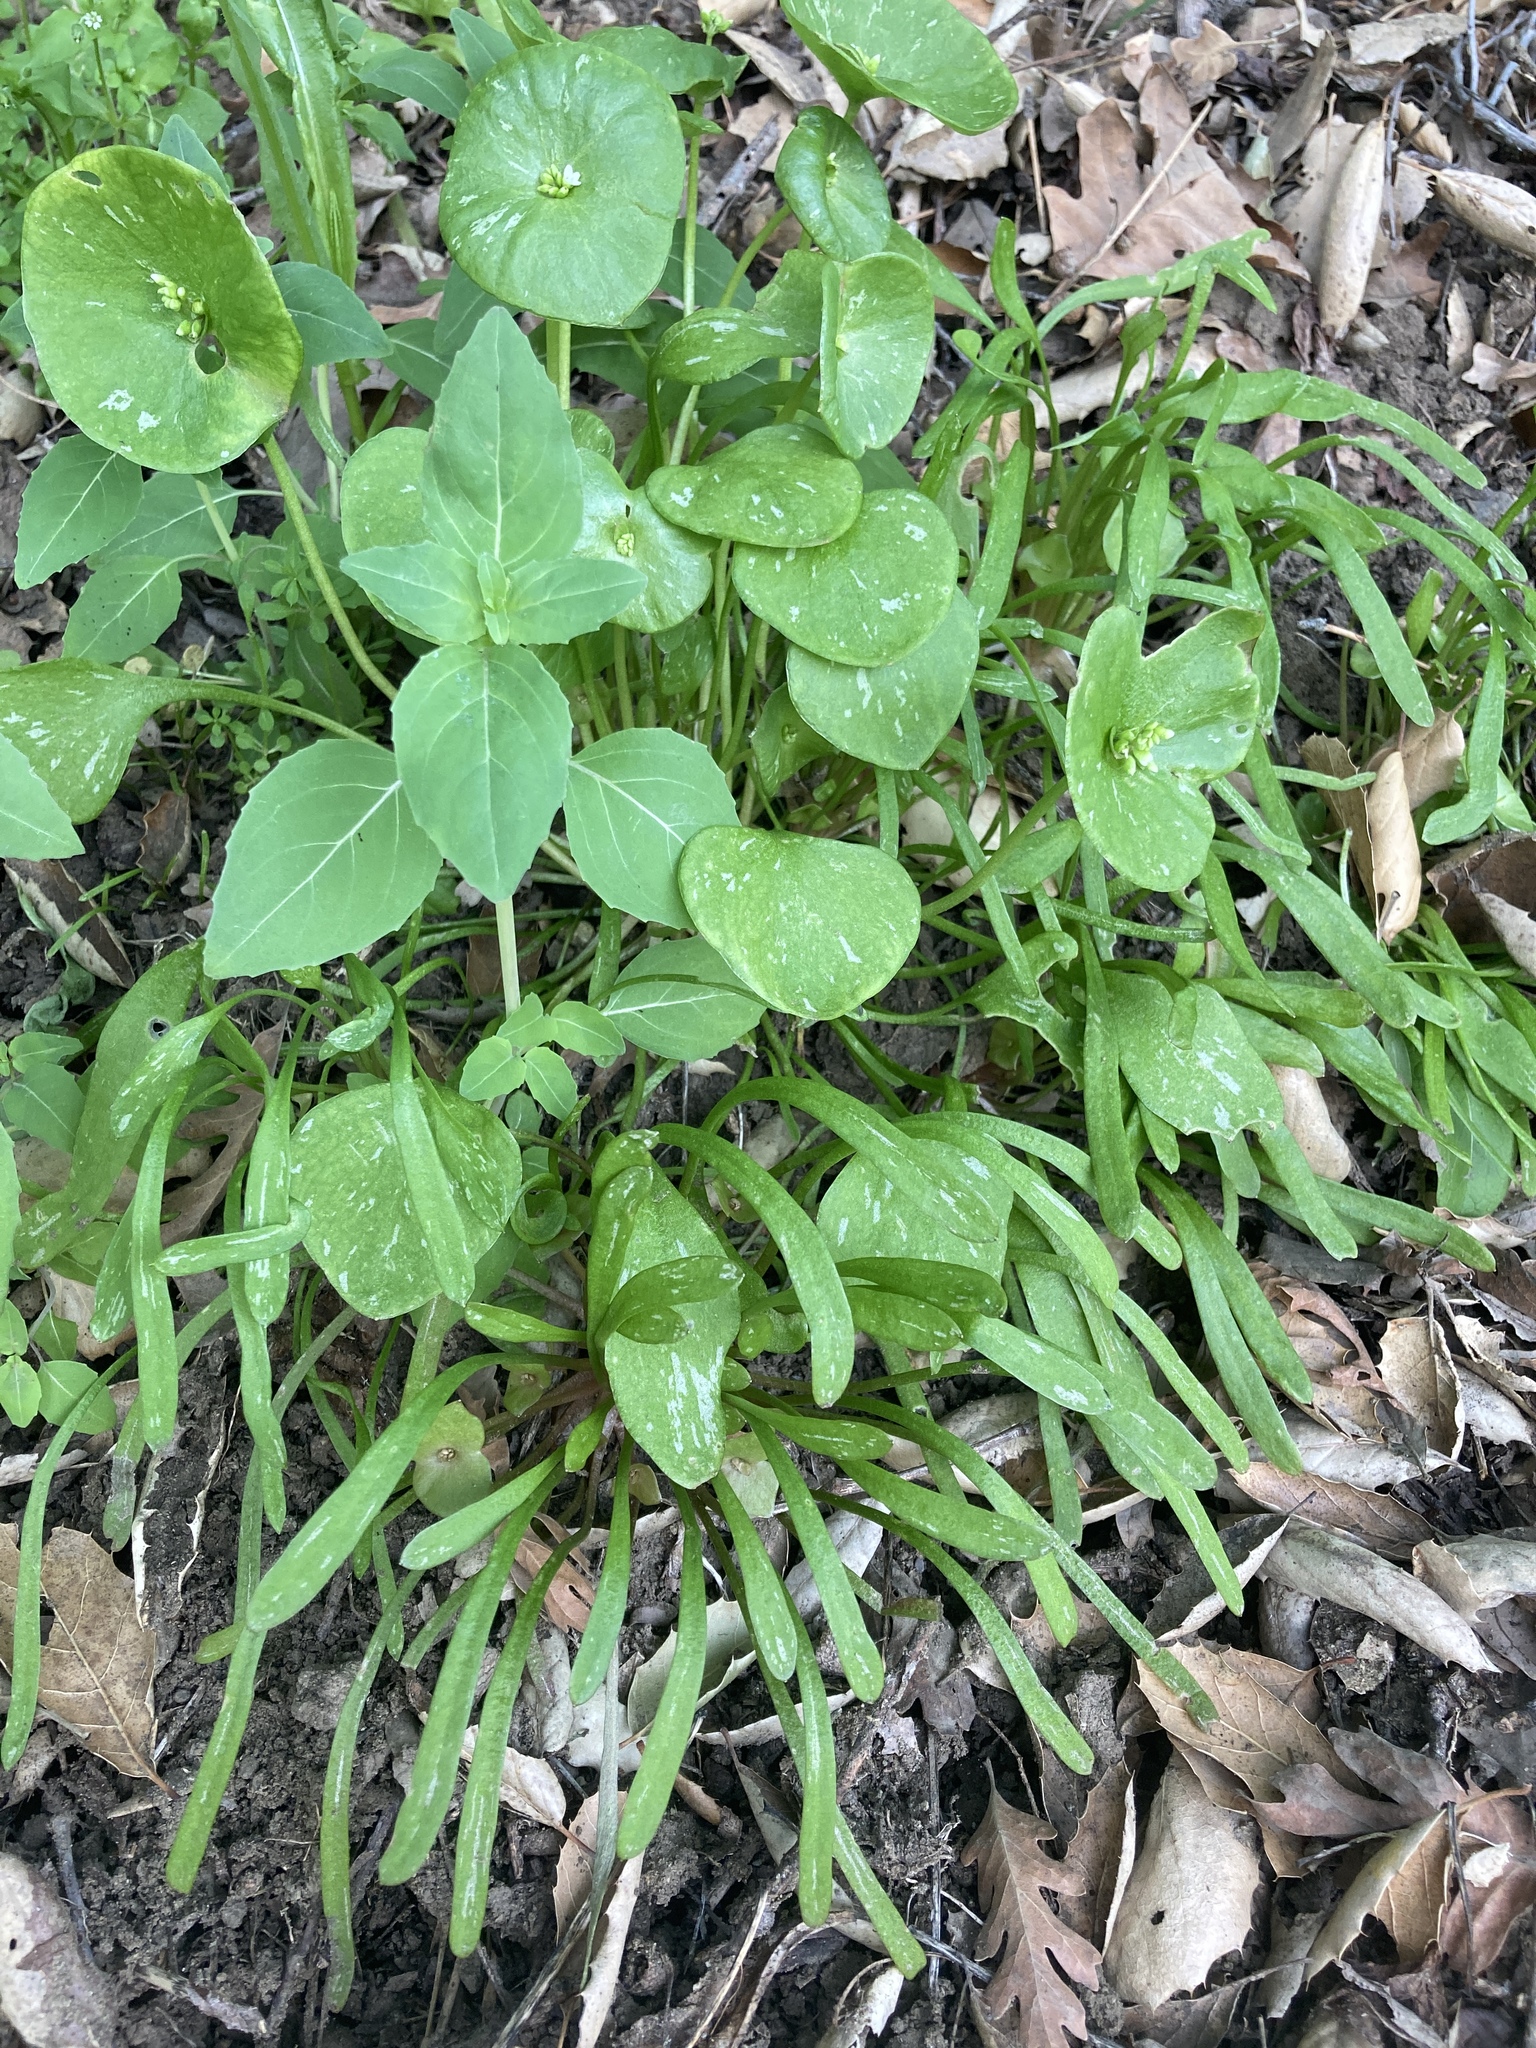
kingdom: Plantae
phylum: Tracheophyta
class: Magnoliopsida
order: Caryophyllales
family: Montiaceae
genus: Claytonia
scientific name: Claytonia perfoliata
